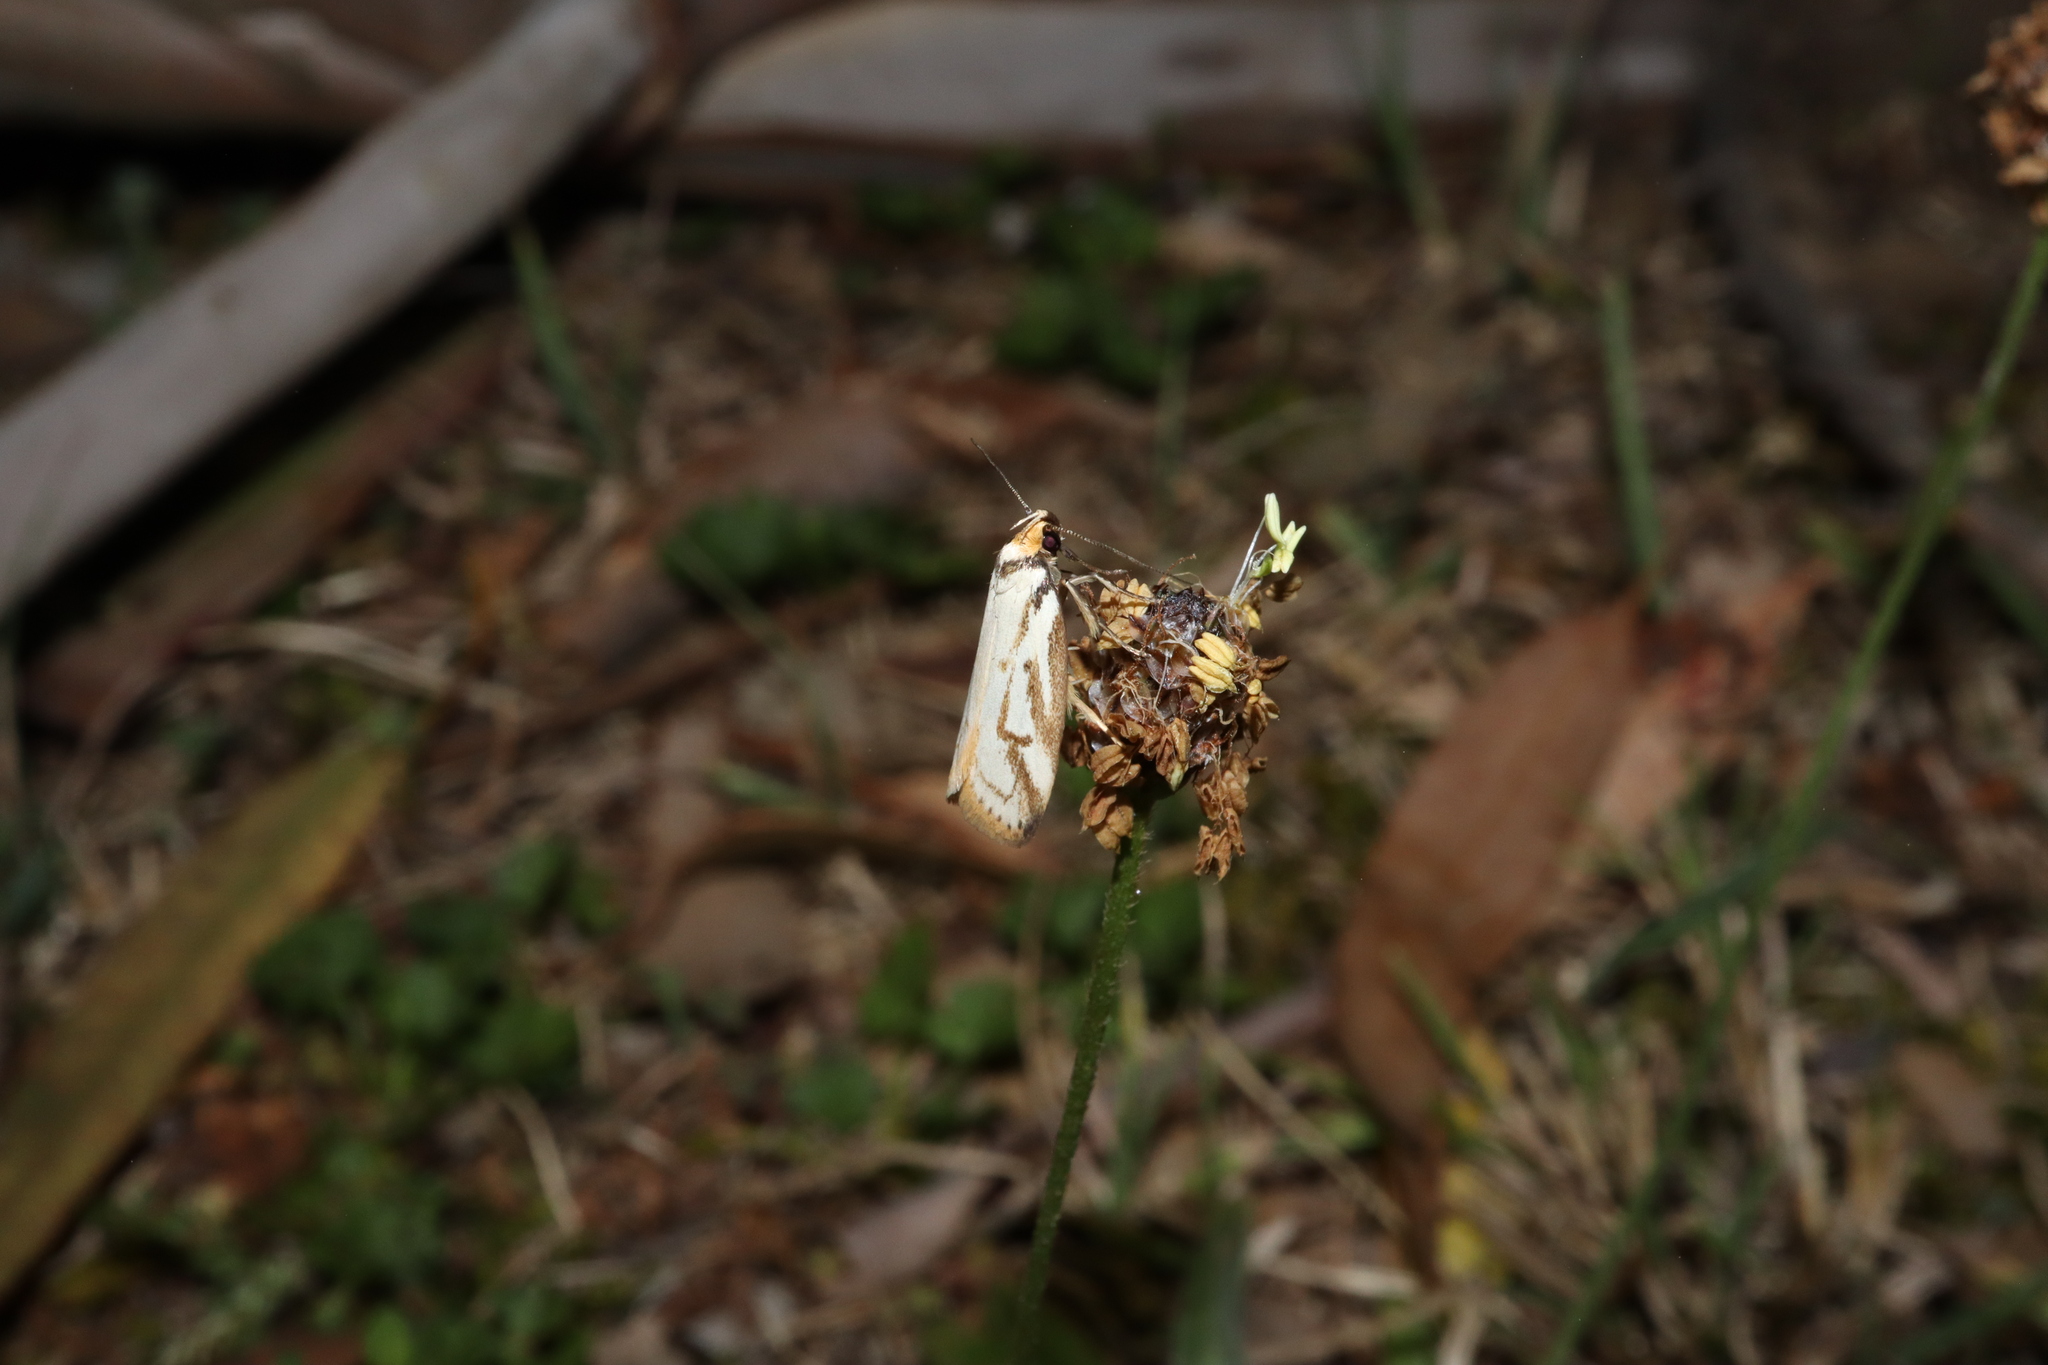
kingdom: Animalia
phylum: Arthropoda
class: Insecta
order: Lepidoptera
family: Oecophoridae
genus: Philobota
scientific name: Philobota cretacea
